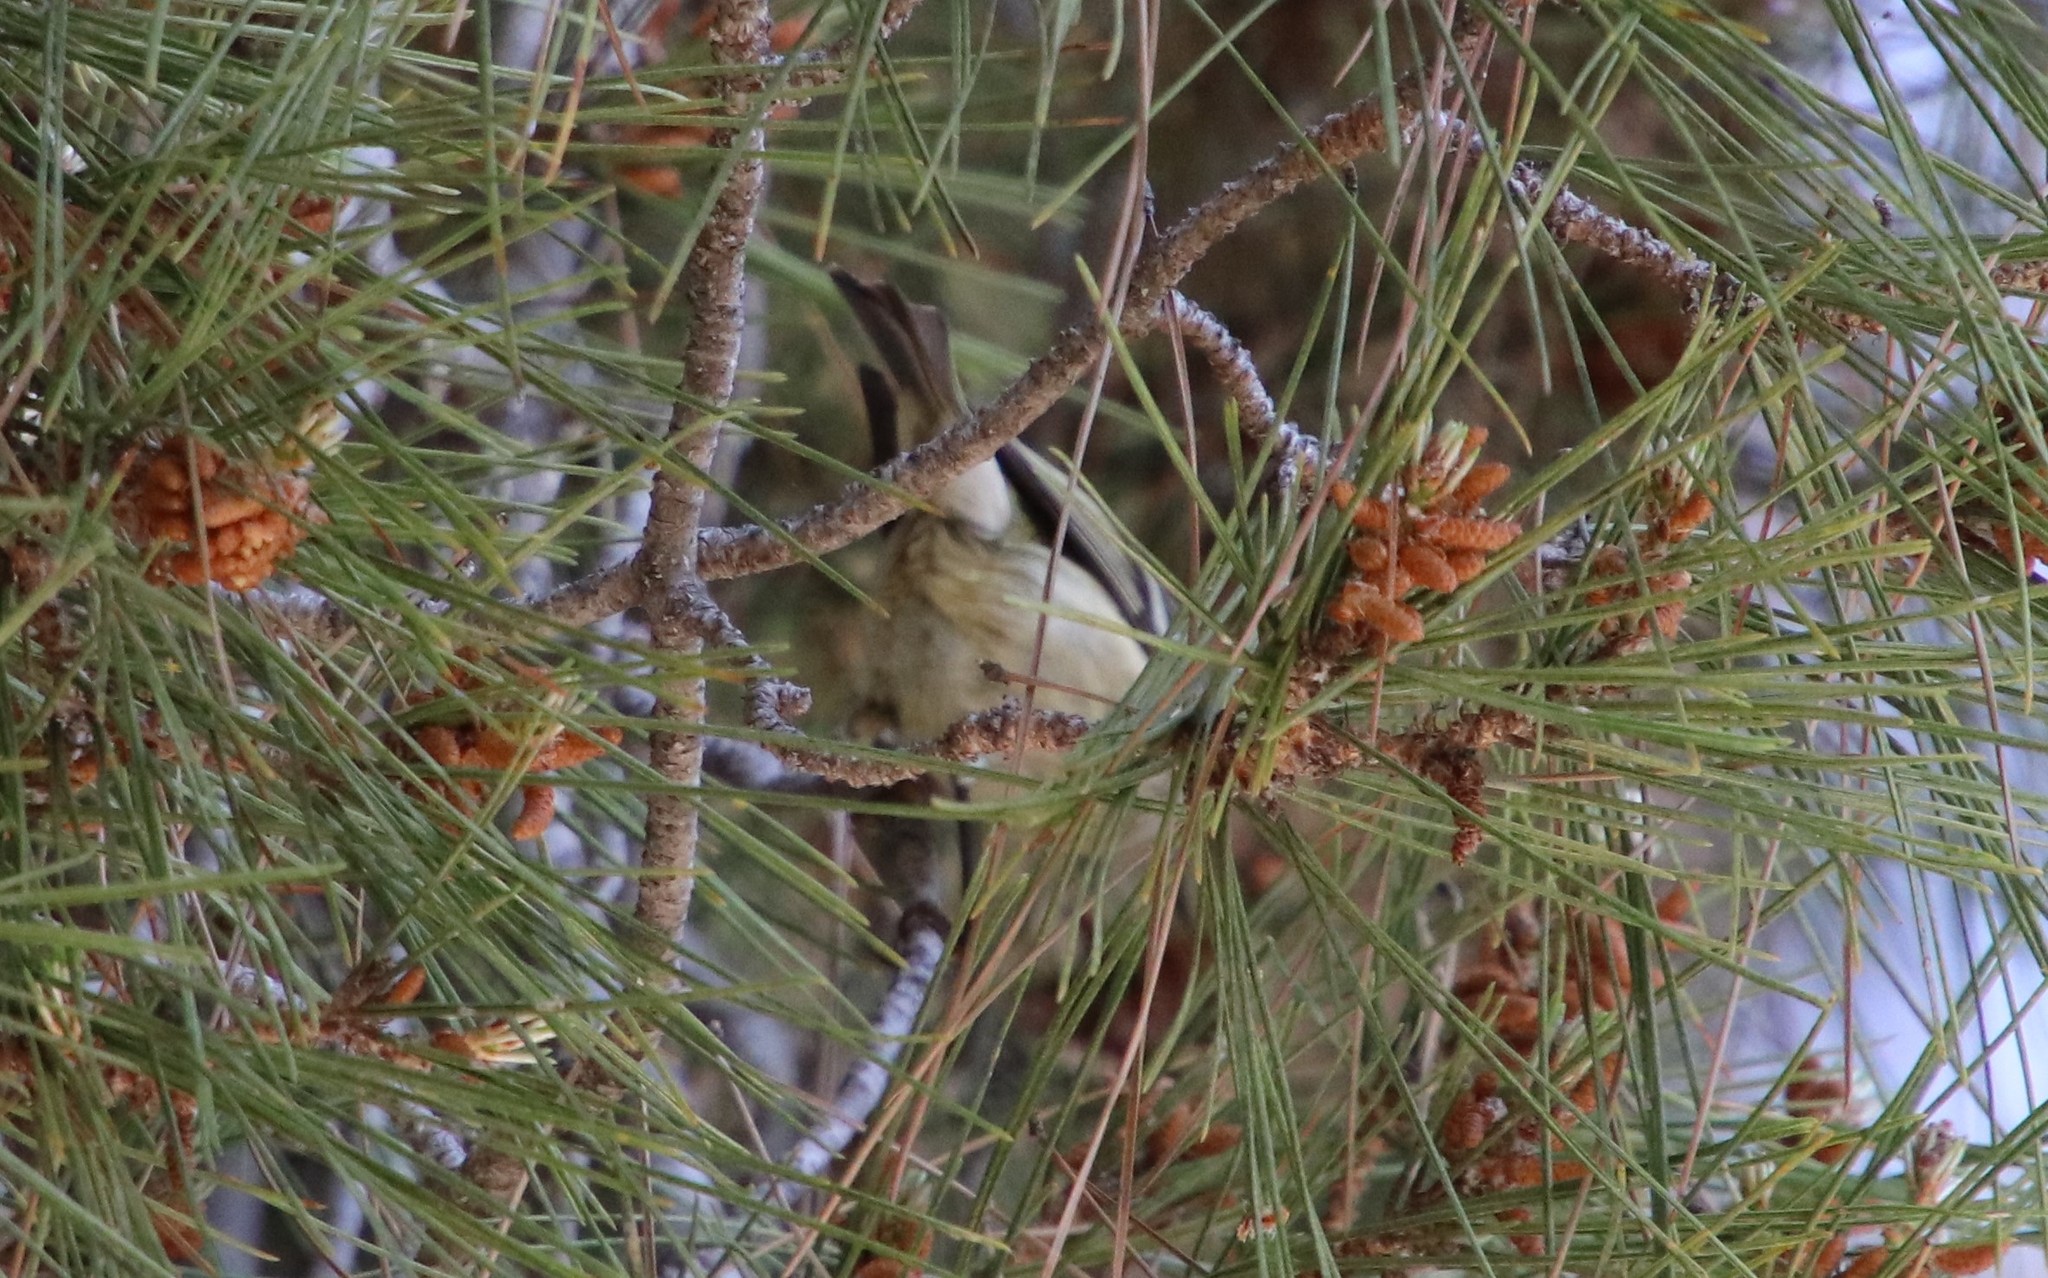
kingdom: Animalia
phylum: Chordata
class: Aves
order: Passeriformes
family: Regulidae
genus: Regulus
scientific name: Regulus calendula
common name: Ruby-crowned kinglet
